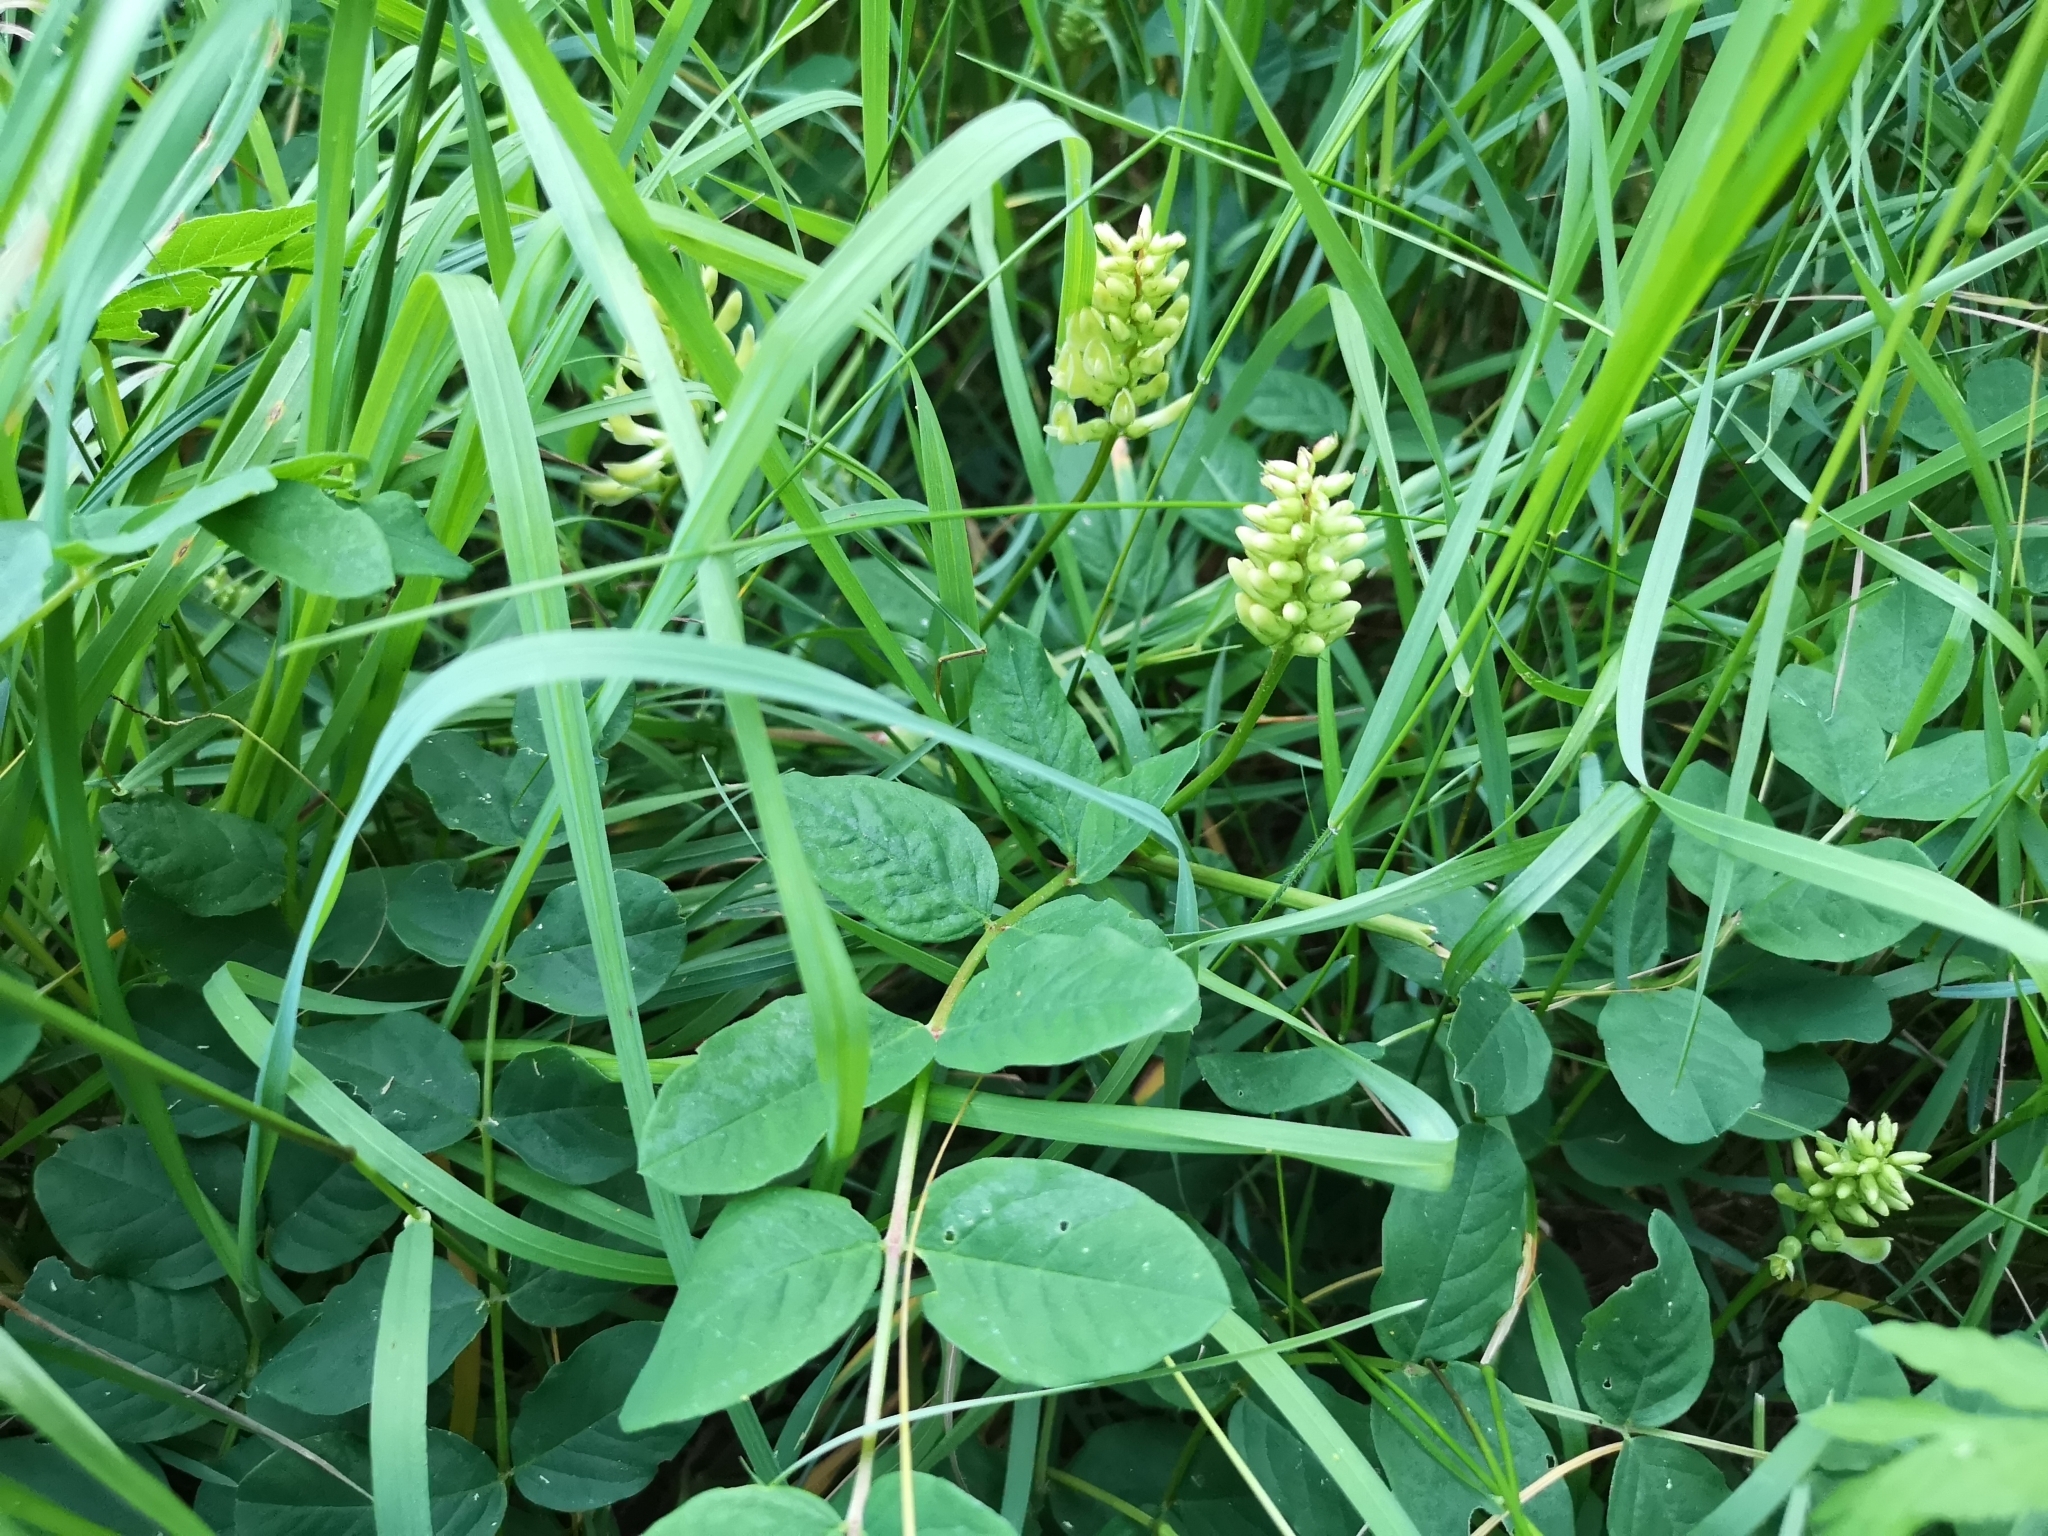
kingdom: Plantae
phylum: Tracheophyta
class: Magnoliopsida
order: Fabales
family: Fabaceae
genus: Astragalus
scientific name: Astragalus glycyphyllos
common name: Wild liquorice
